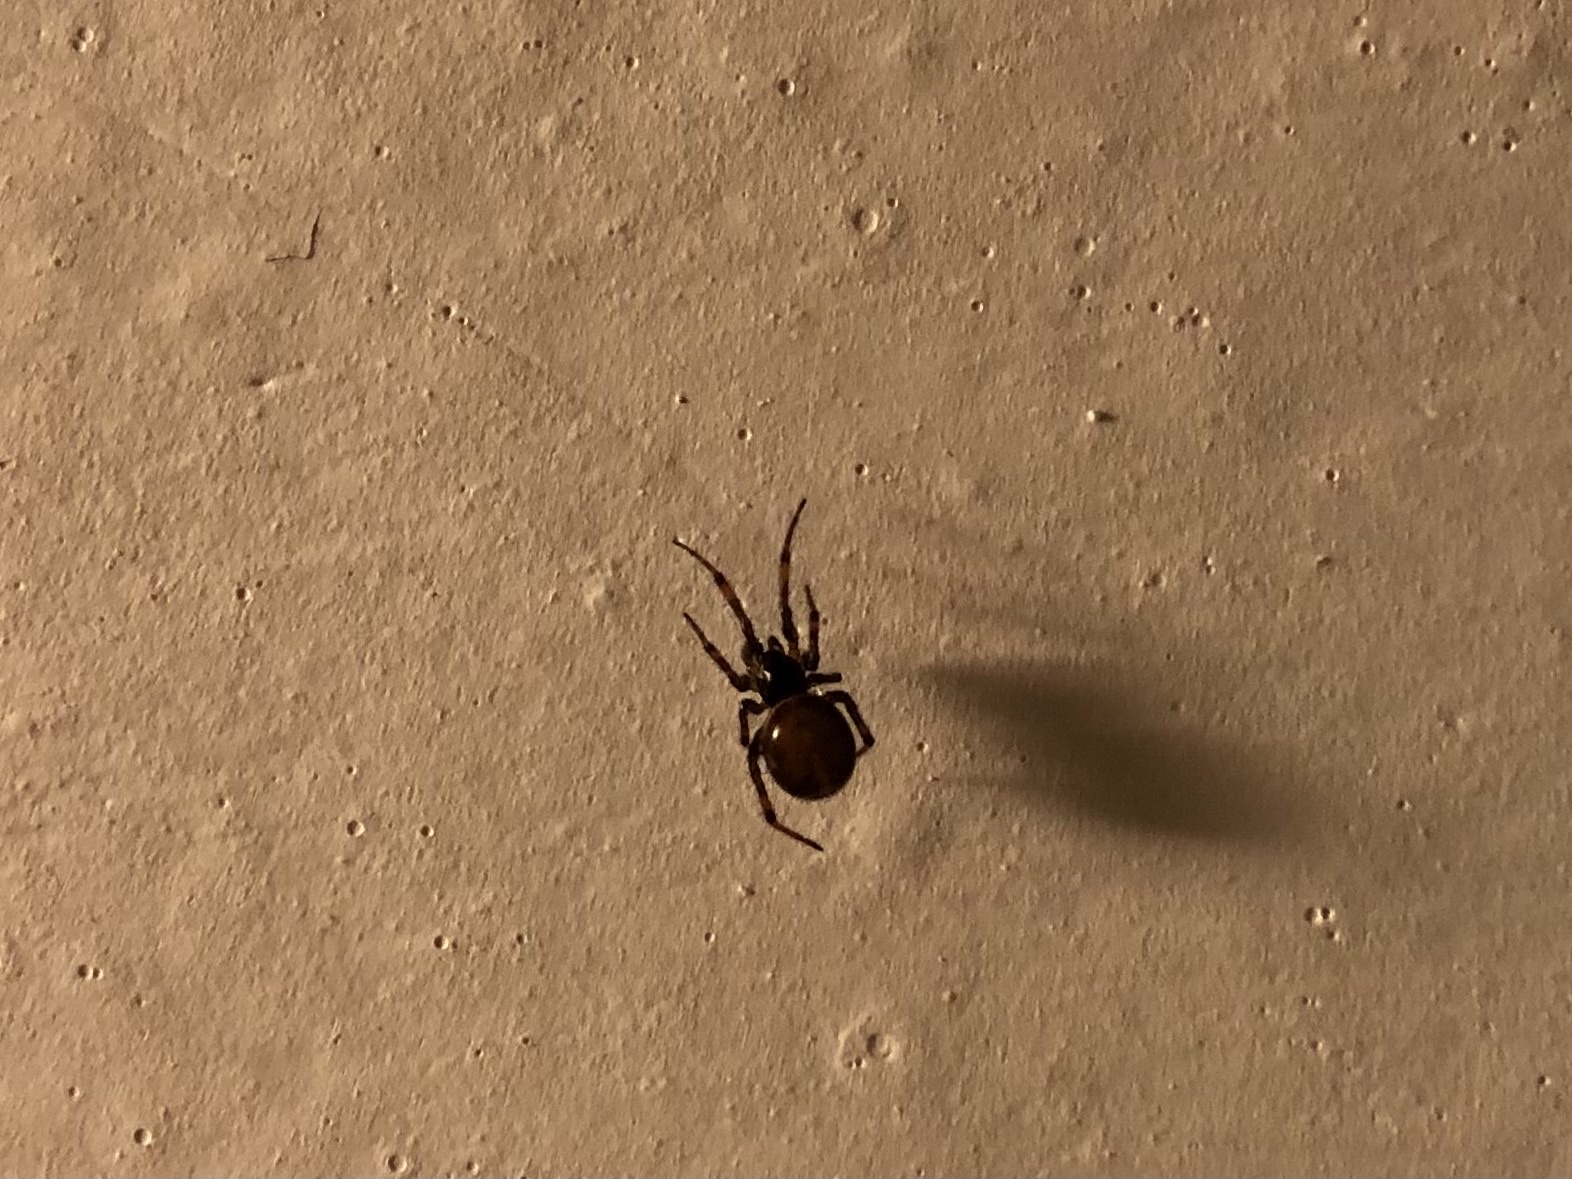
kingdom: Animalia
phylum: Arthropoda
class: Arachnida
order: Araneae
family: Theridiidae
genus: Steatoda
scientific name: Steatoda bipunctata
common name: False widow
